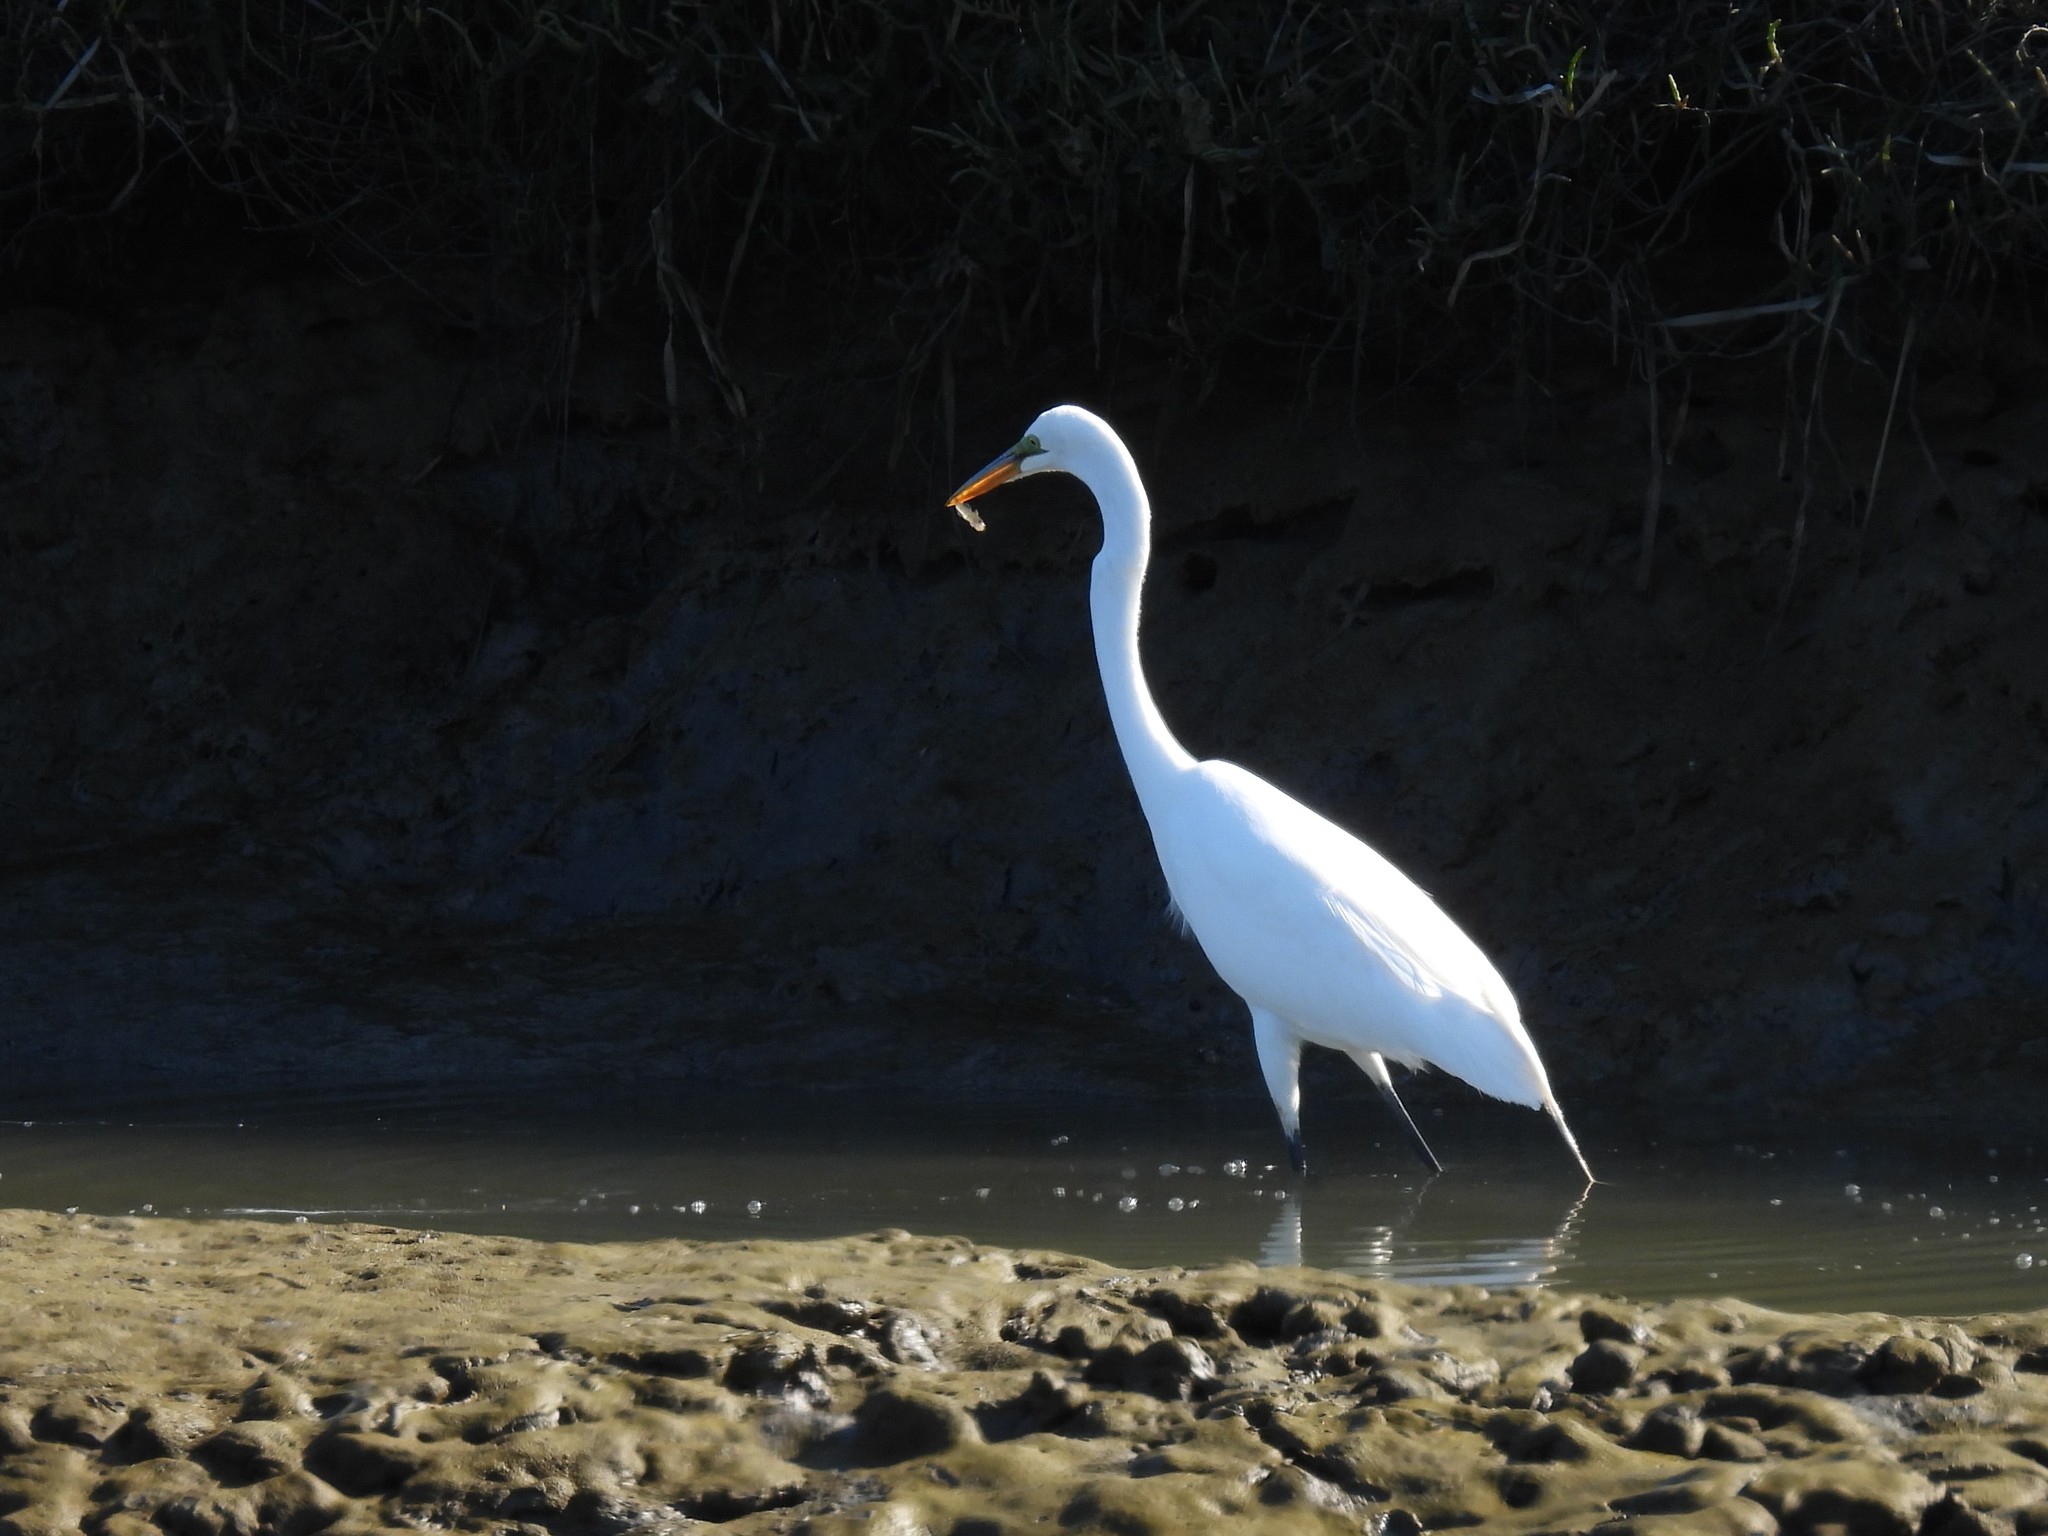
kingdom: Animalia
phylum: Chordata
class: Aves
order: Pelecaniformes
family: Ardeidae
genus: Ardea
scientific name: Ardea alba
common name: Great egret
